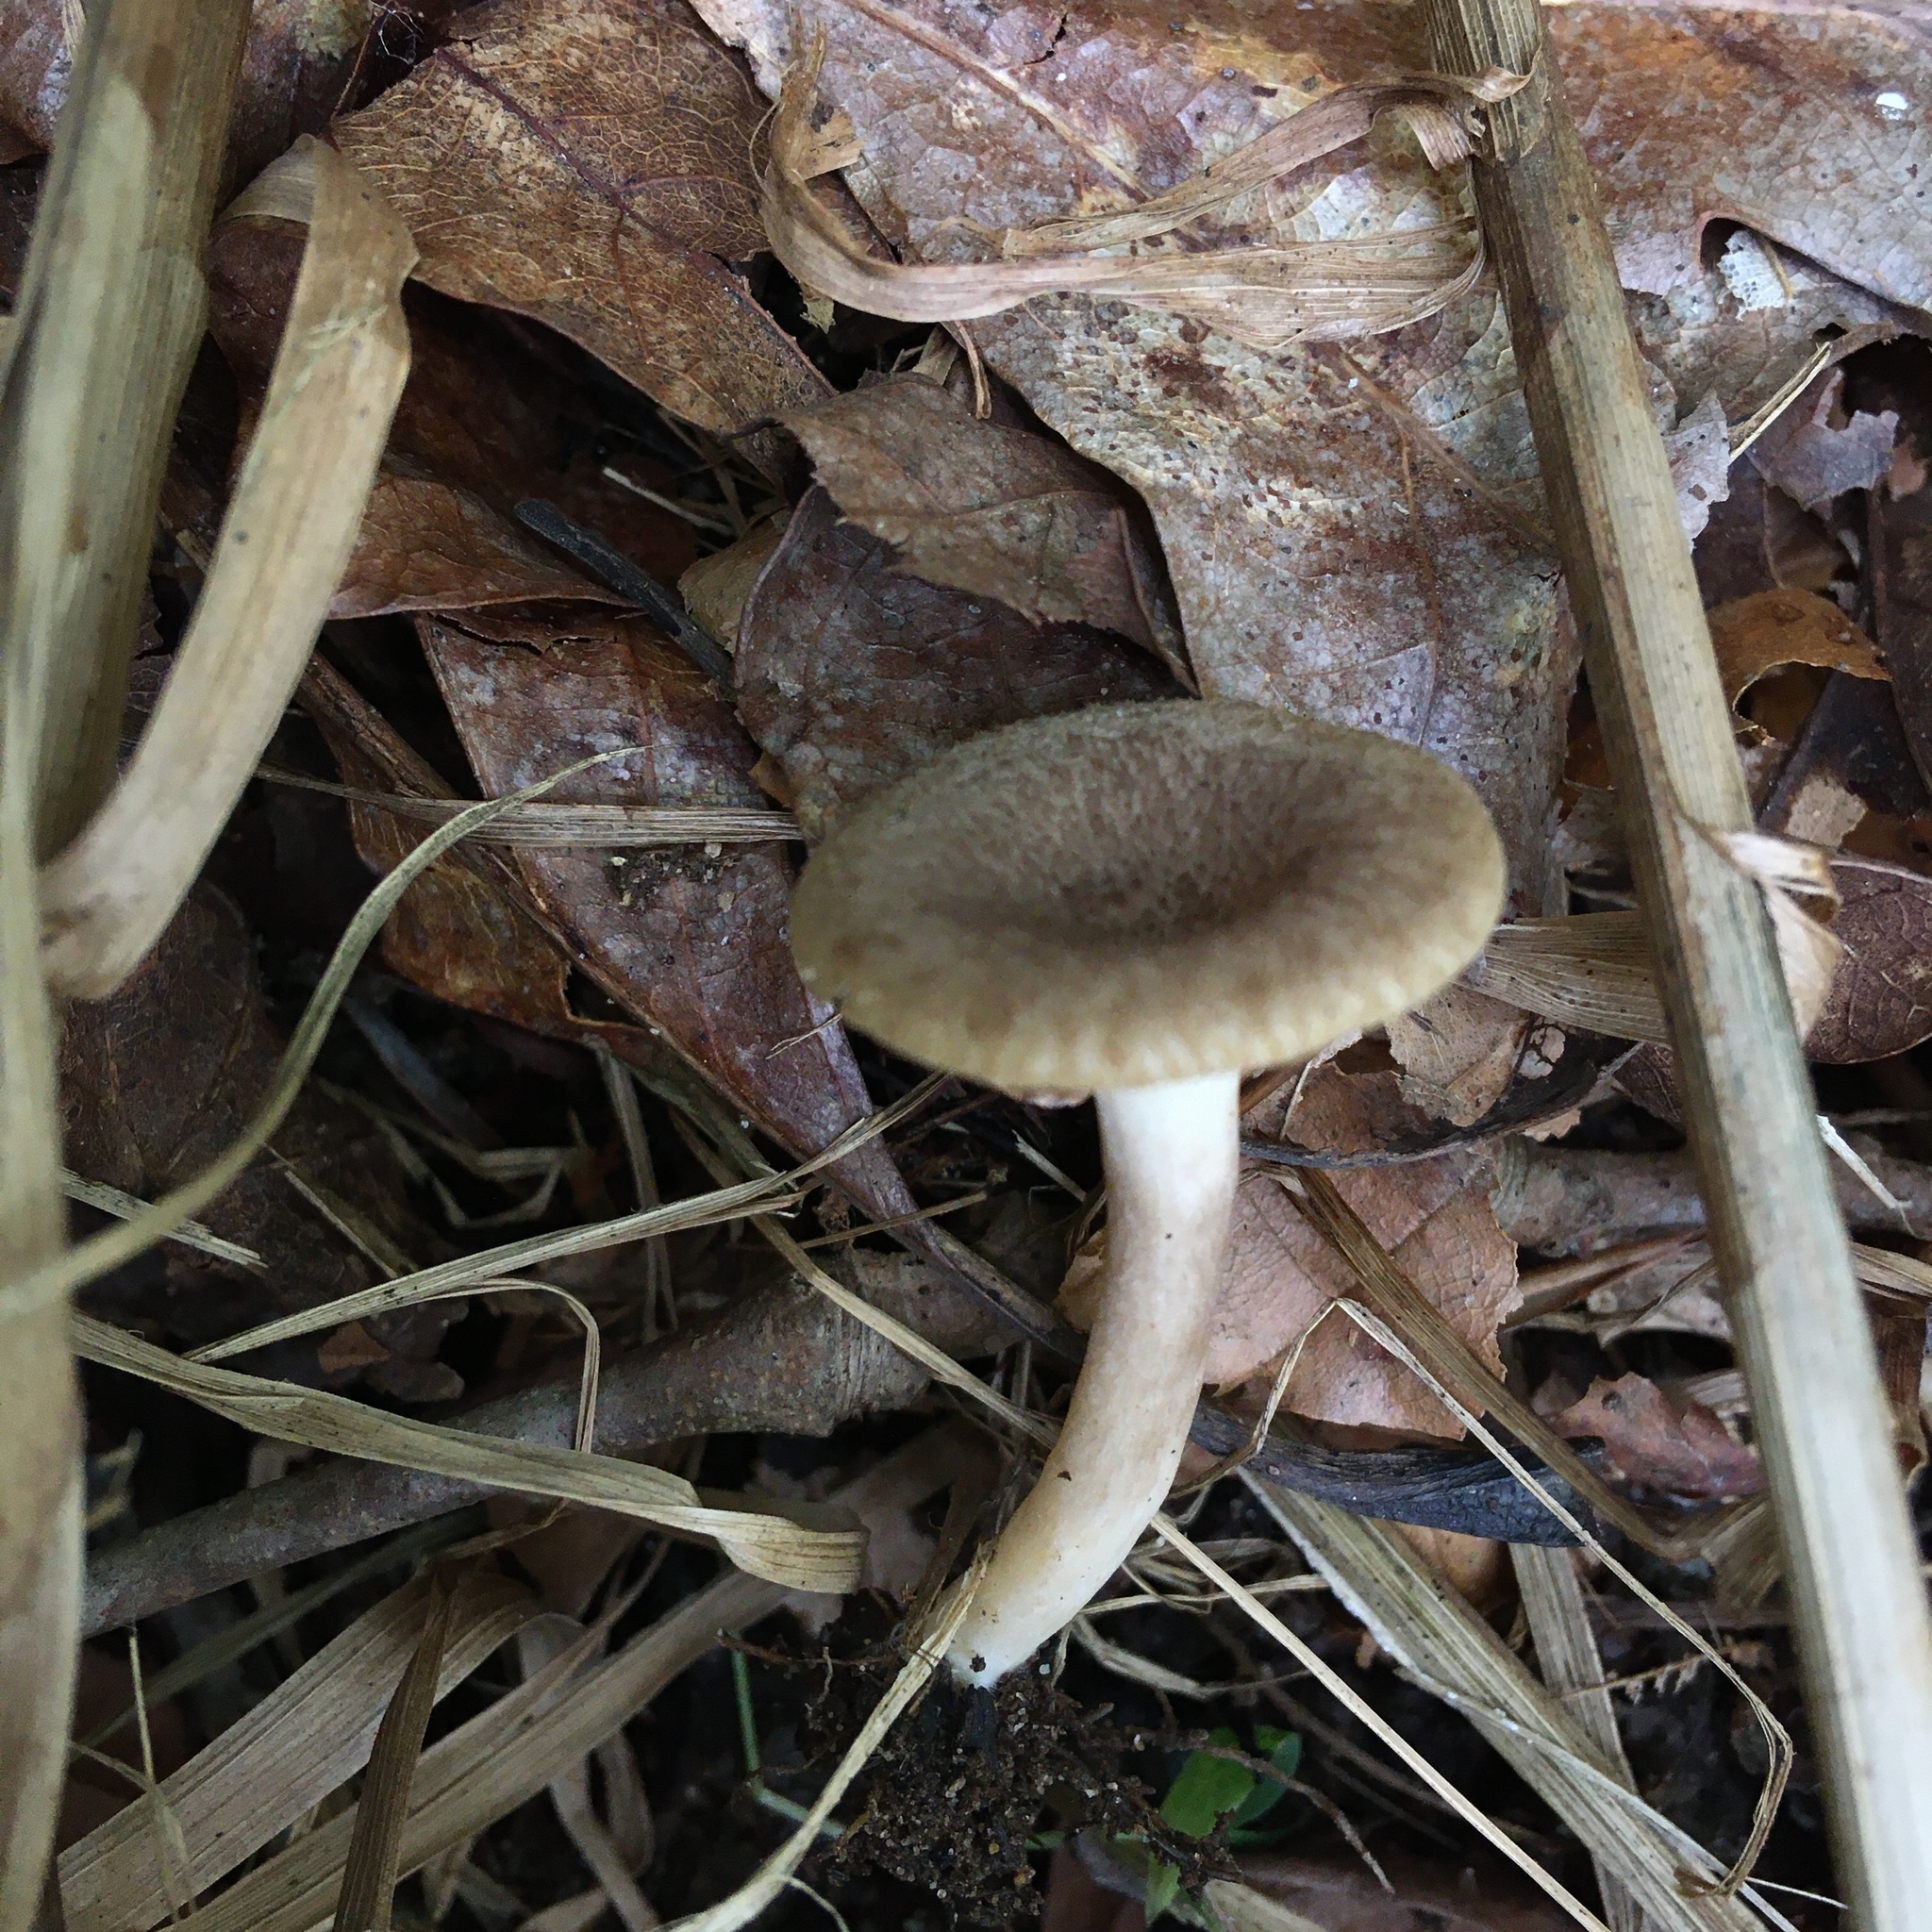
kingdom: Fungi
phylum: Basidiomycota
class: Agaricomycetes
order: Russulales
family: Russulaceae
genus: Lactarius
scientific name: Lactarius griseus
